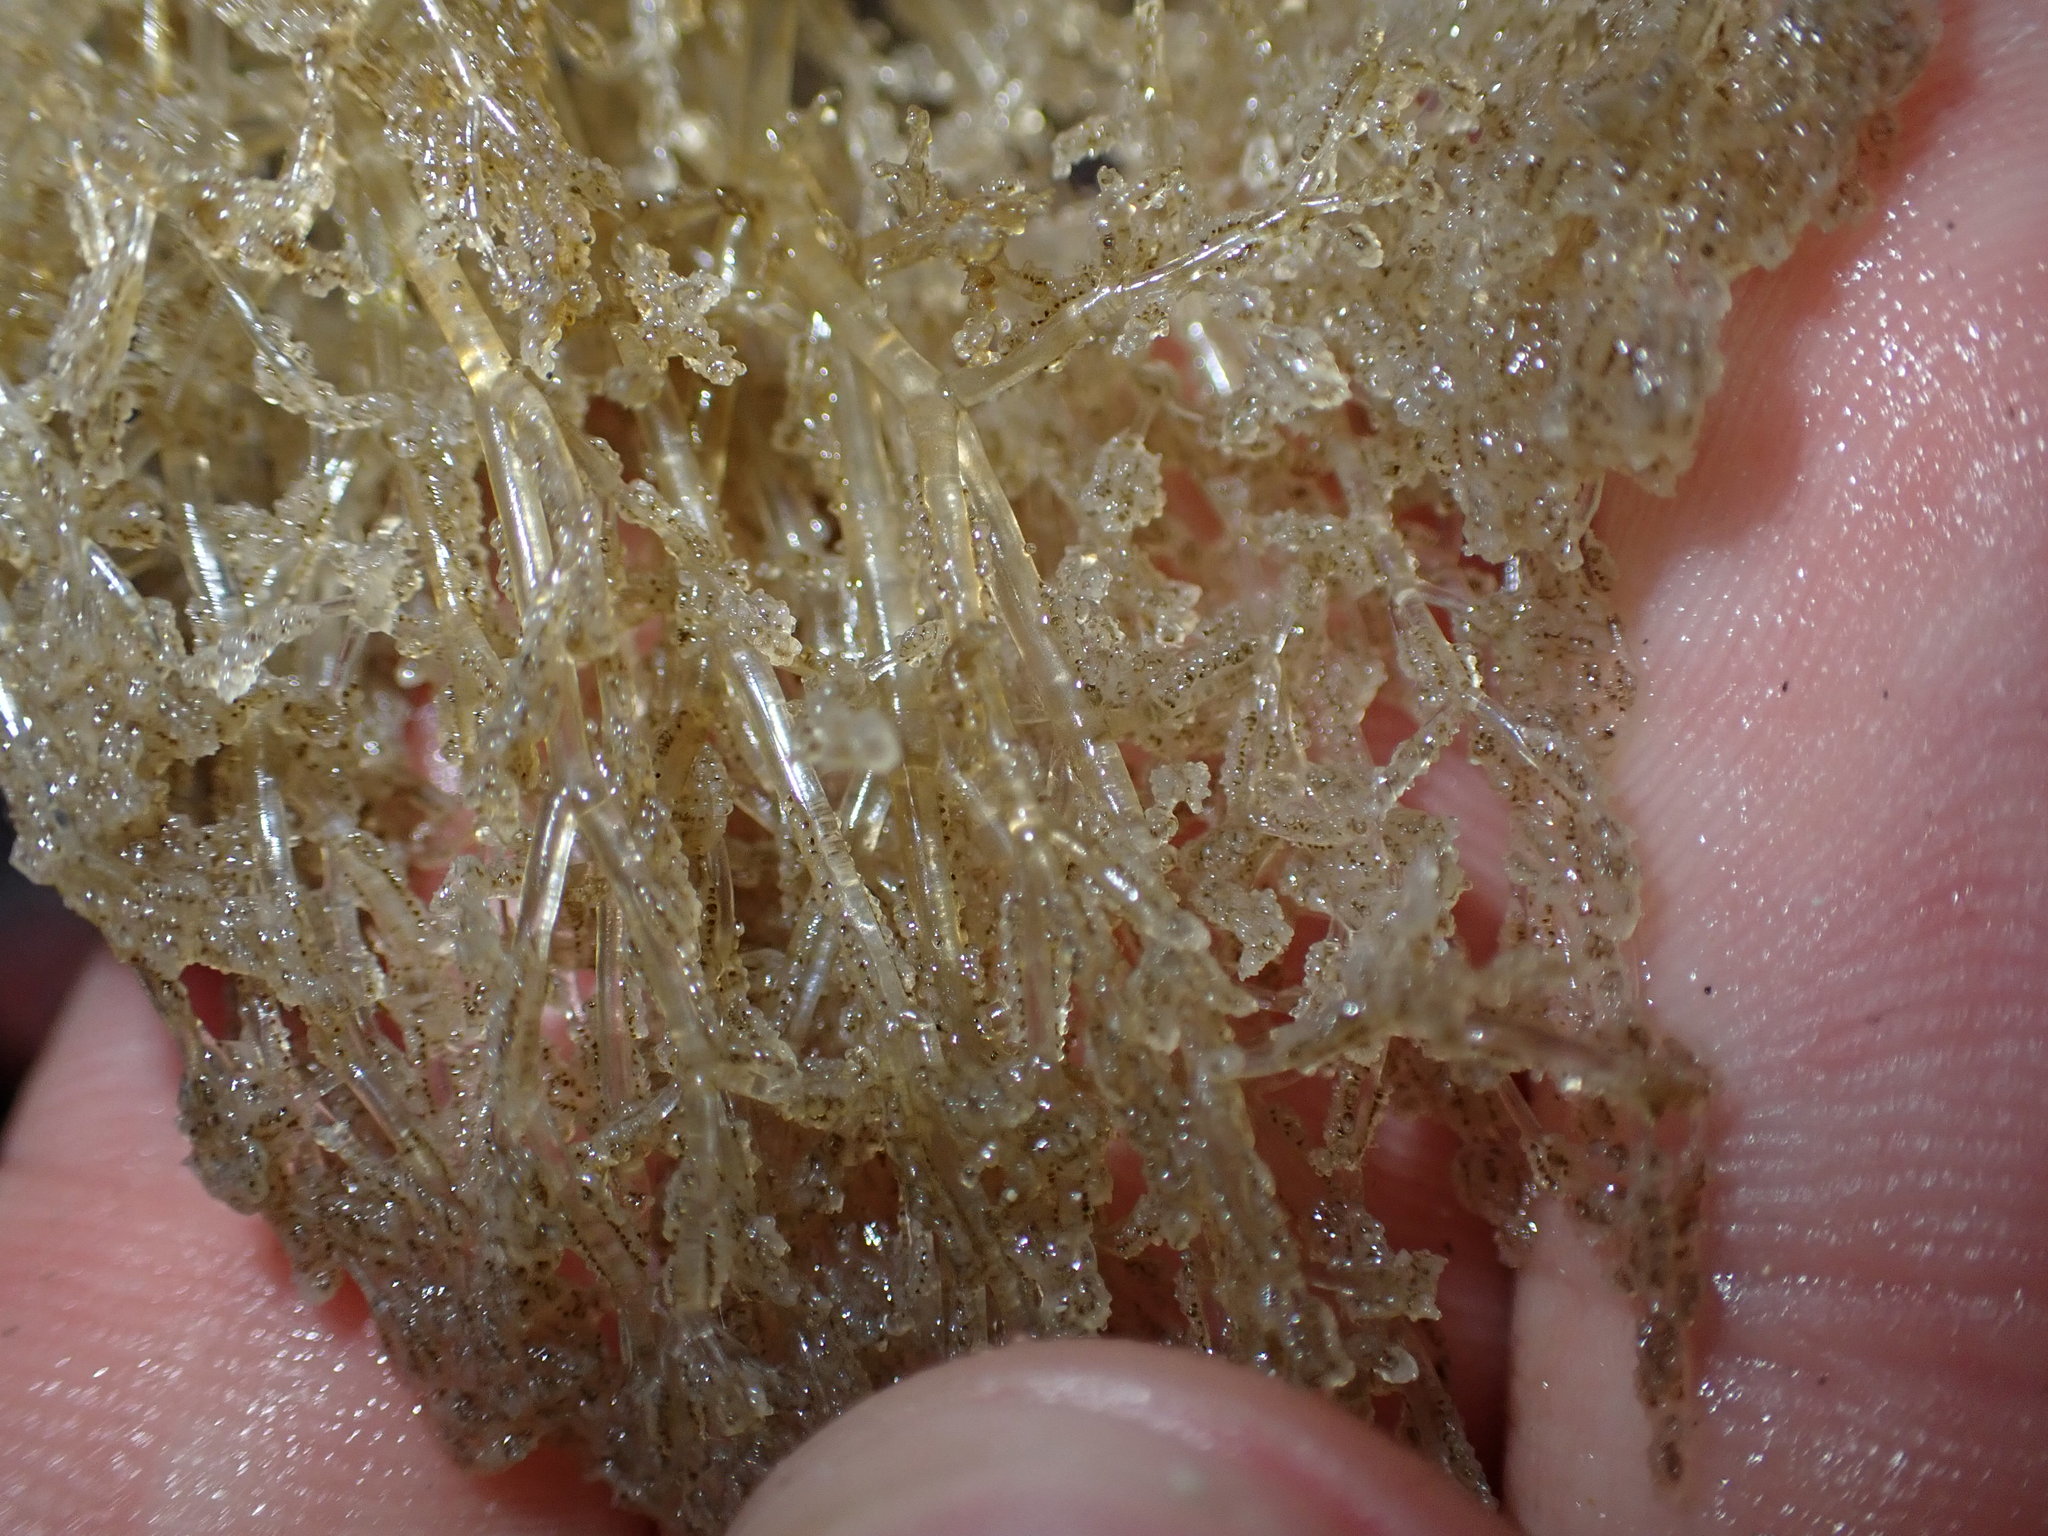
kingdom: Animalia
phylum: Bryozoa
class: Gymnolaemata
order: Ctenostomatida
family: Vesiculariidae
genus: Amathia
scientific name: Amathia verticillata
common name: Whorled zoobotryon
